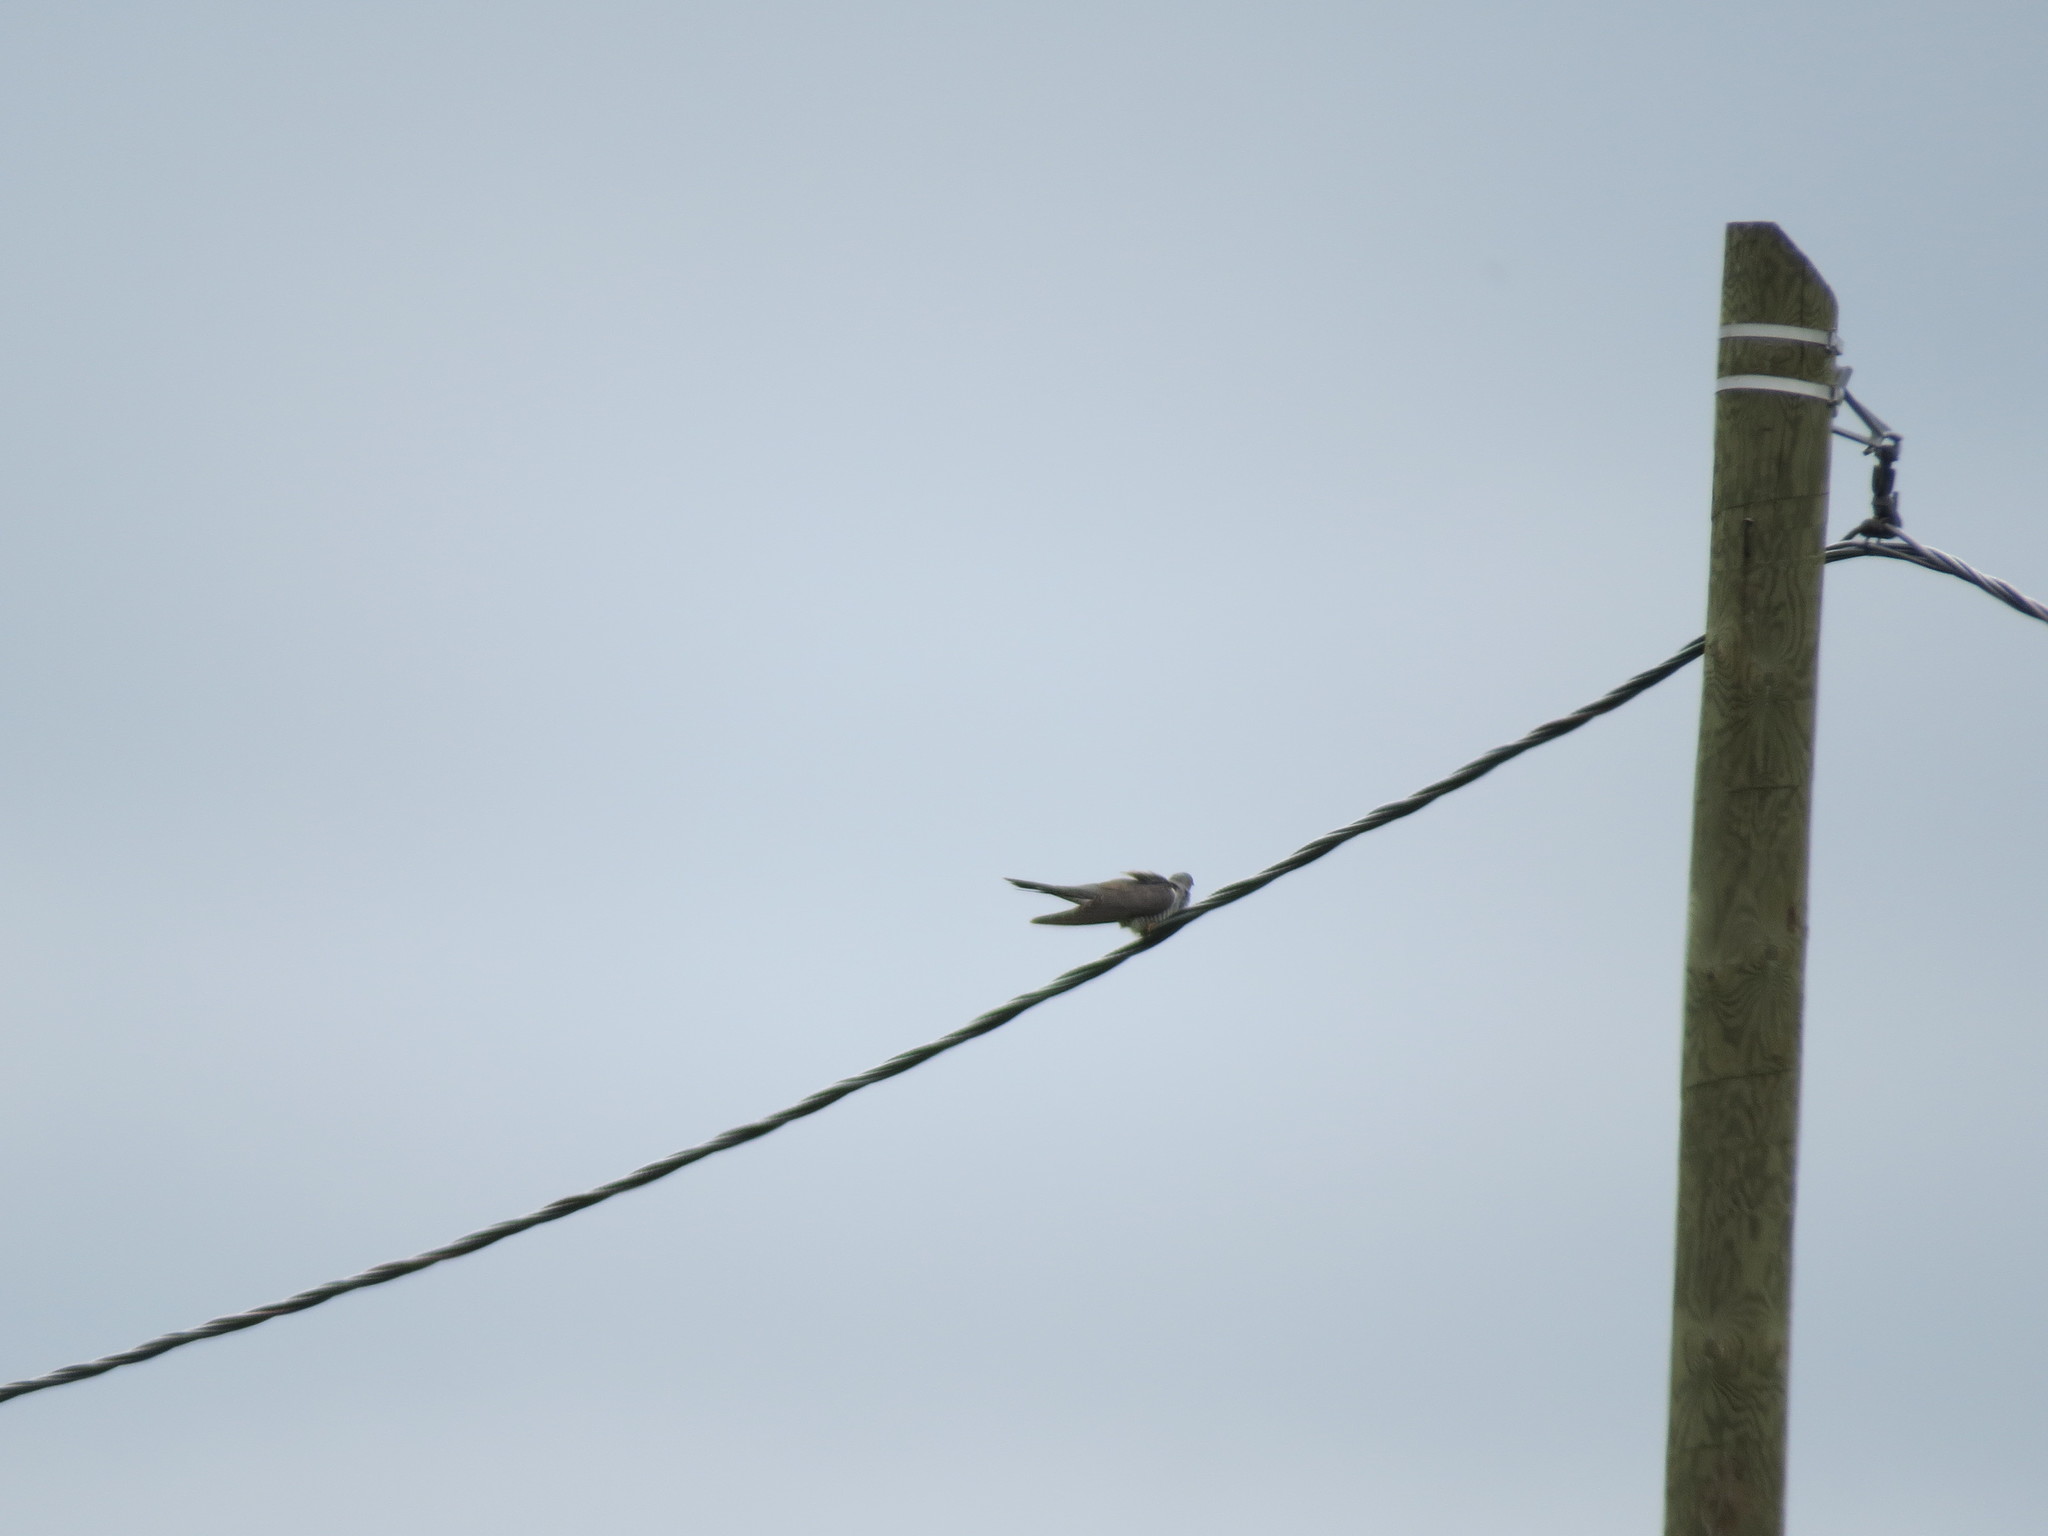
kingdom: Animalia
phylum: Chordata
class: Aves
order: Cuculiformes
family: Cuculidae
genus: Cuculus
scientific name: Cuculus canorus
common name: Common cuckoo
